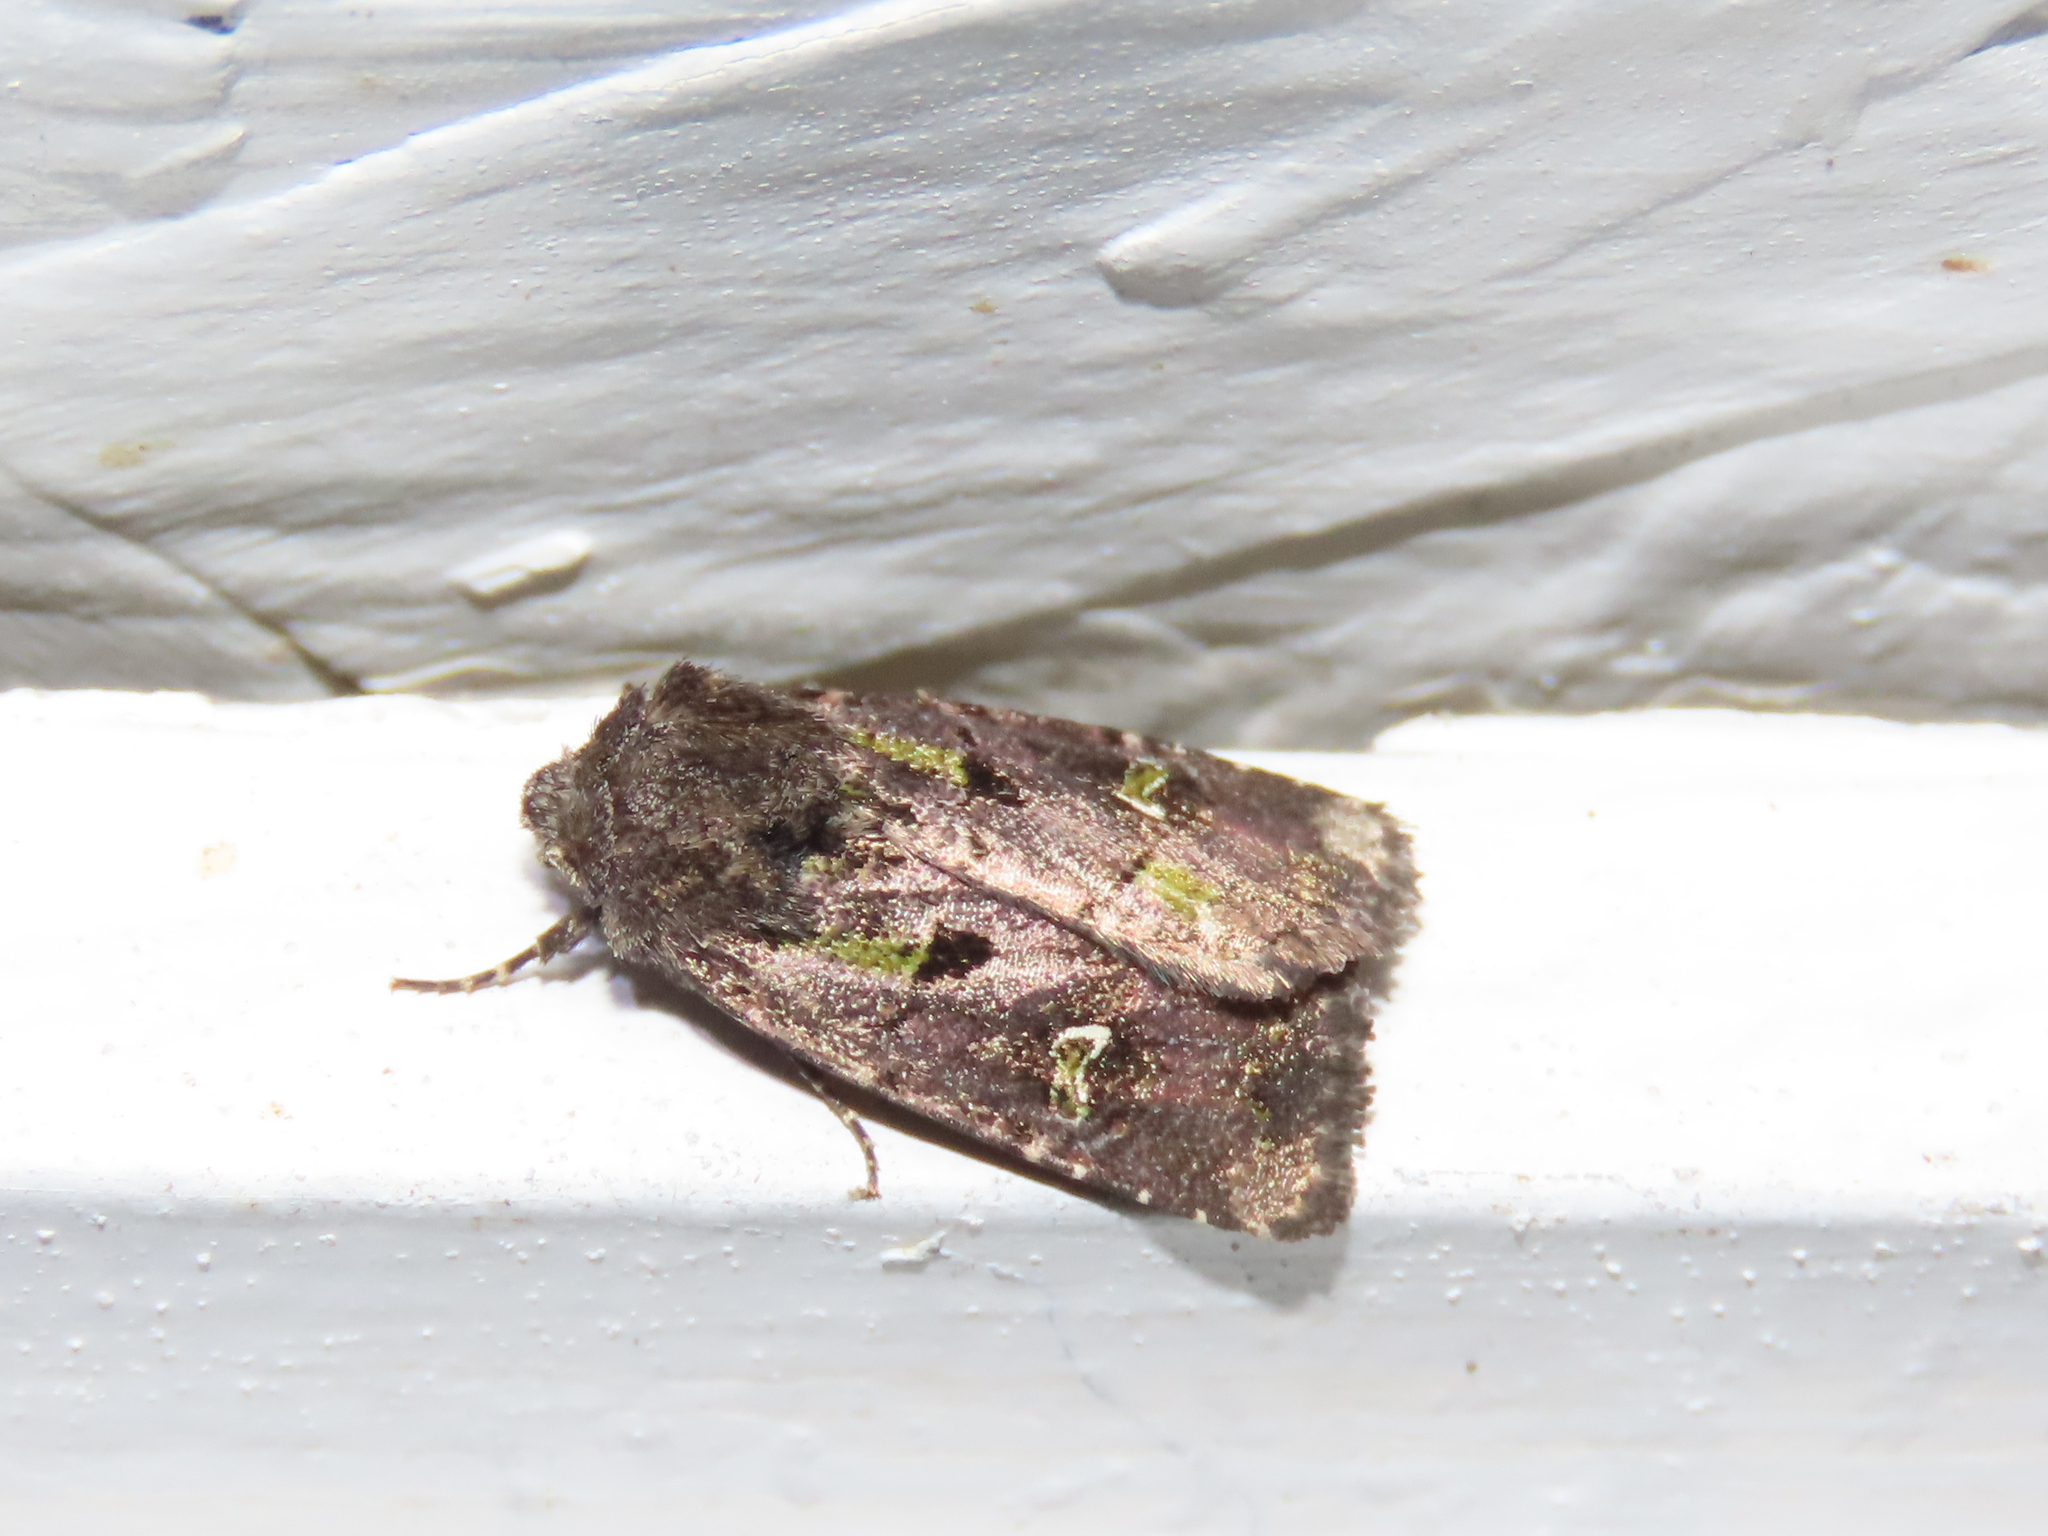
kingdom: Animalia
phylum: Arthropoda
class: Insecta
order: Lepidoptera
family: Noctuidae
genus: Lacinipolia
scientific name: Lacinipolia renigera
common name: Kidney-spotted minor
